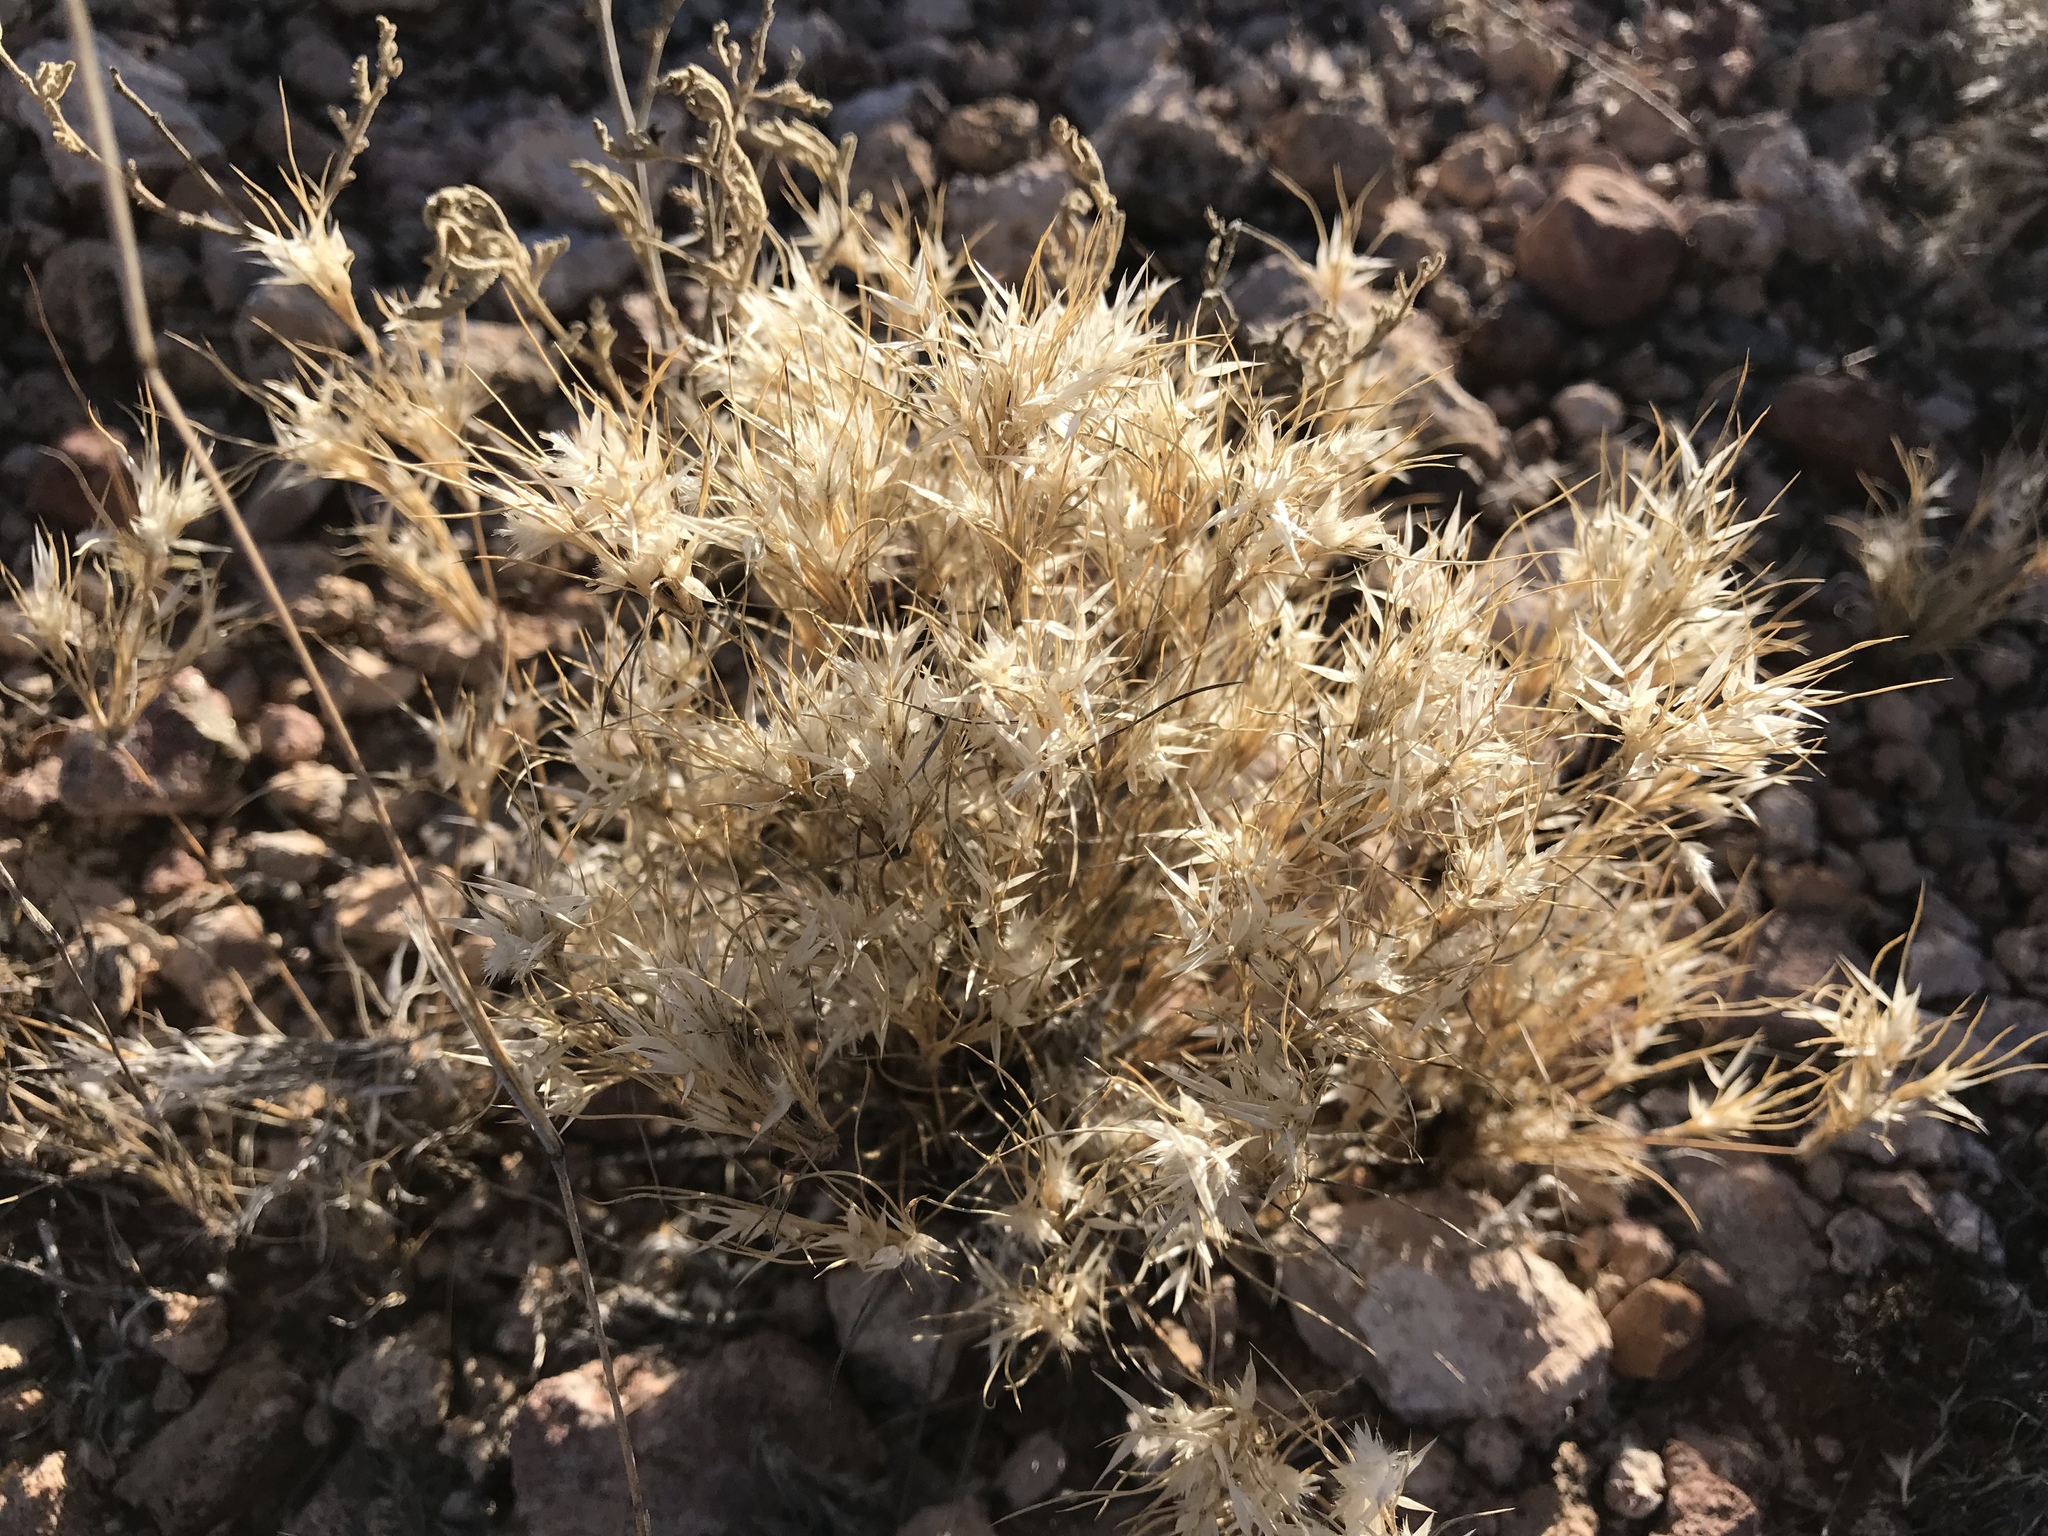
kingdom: Plantae
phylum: Tracheophyta
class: Liliopsida
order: Poales
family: Poaceae
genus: Dasyochloa
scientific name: Dasyochloa pulchella
